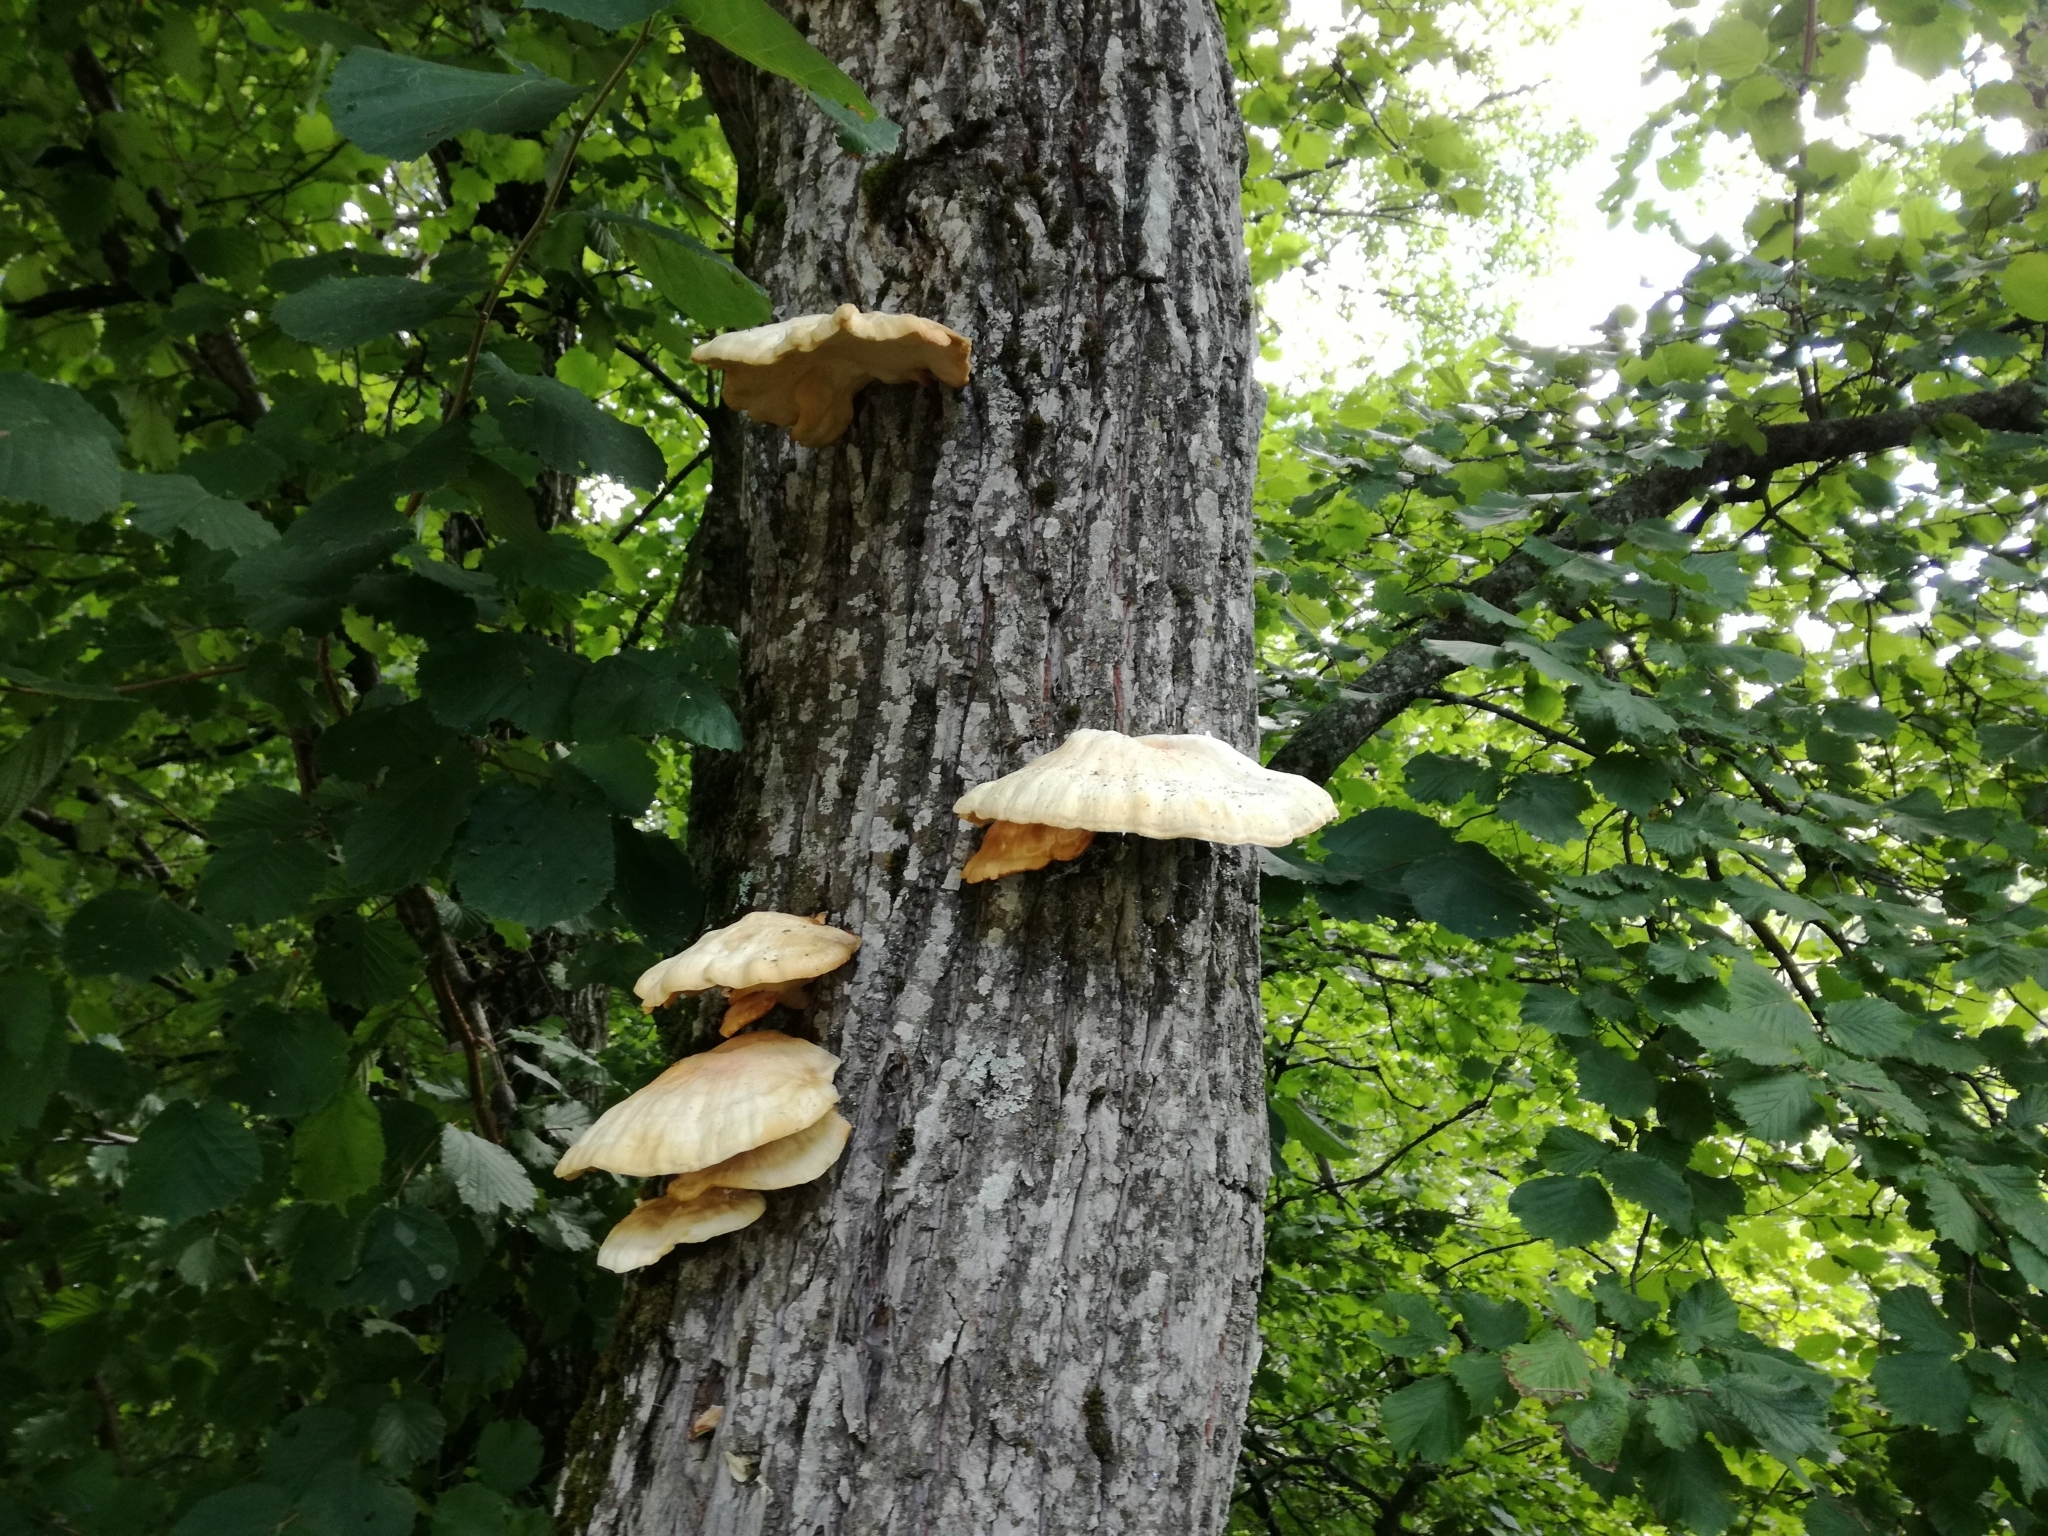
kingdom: Fungi
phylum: Basidiomycota
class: Agaricomycetes
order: Polyporales
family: Laetiporaceae
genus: Laetiporus
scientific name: Laetiporus sulphureus
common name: Chicken of the woods
